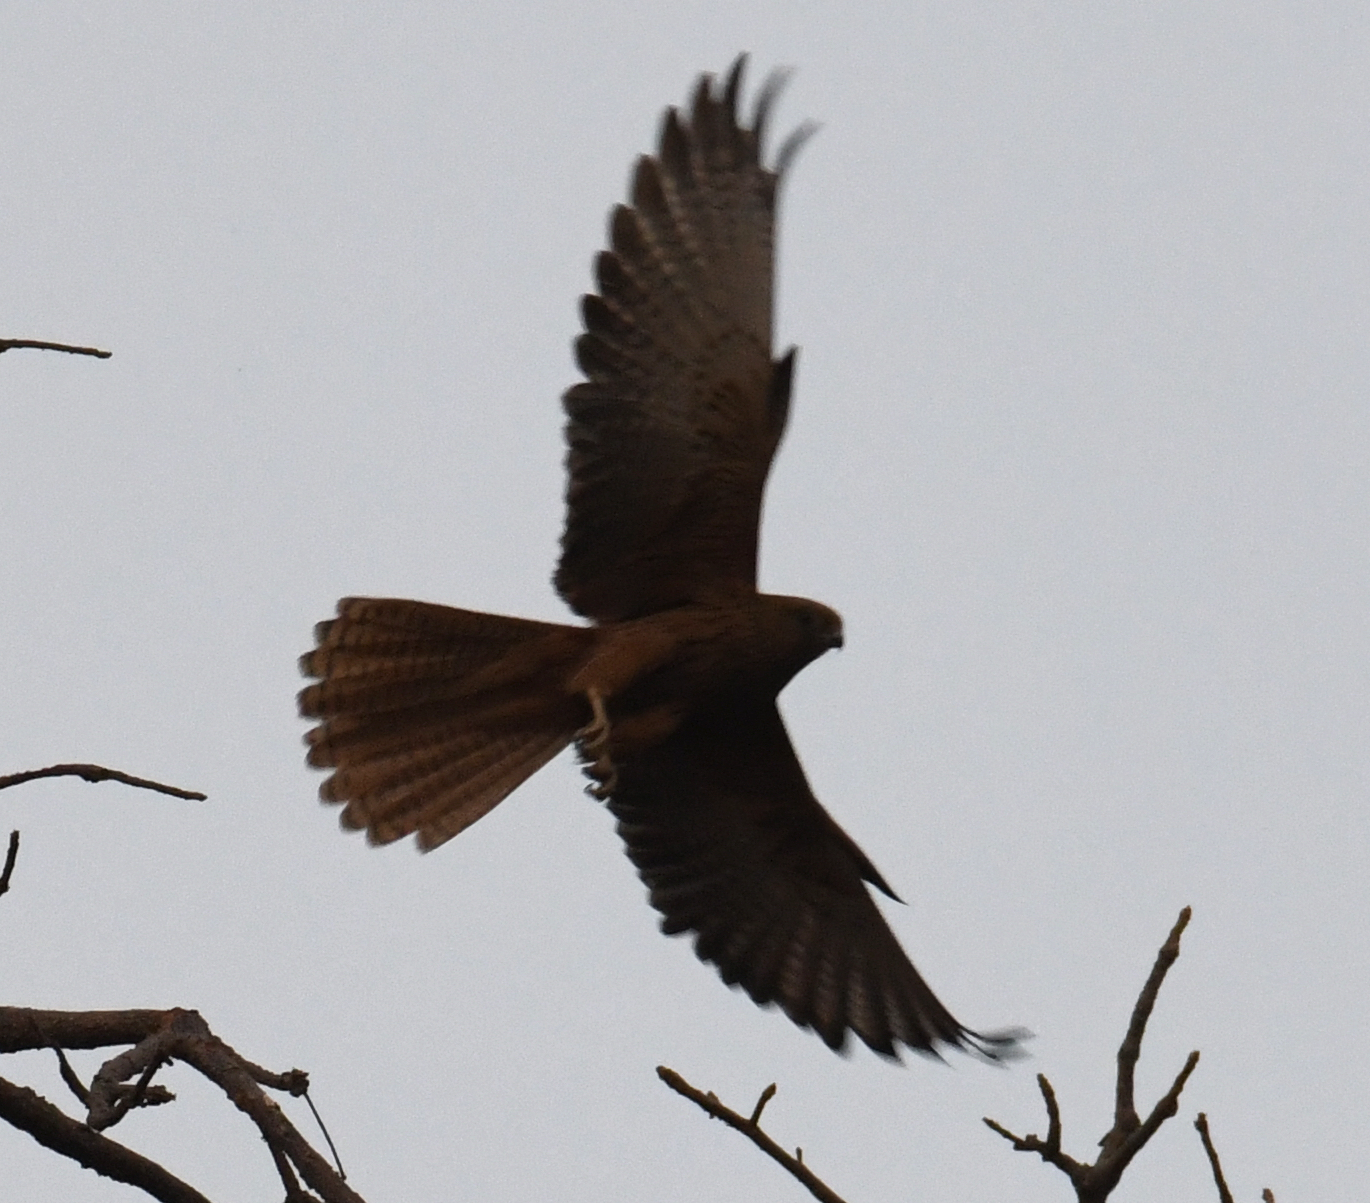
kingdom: Animalia
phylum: Chordata
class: Aves
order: Falconiformes
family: Falconidae
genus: Falco
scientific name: Falco alopex
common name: Fox kestrel
